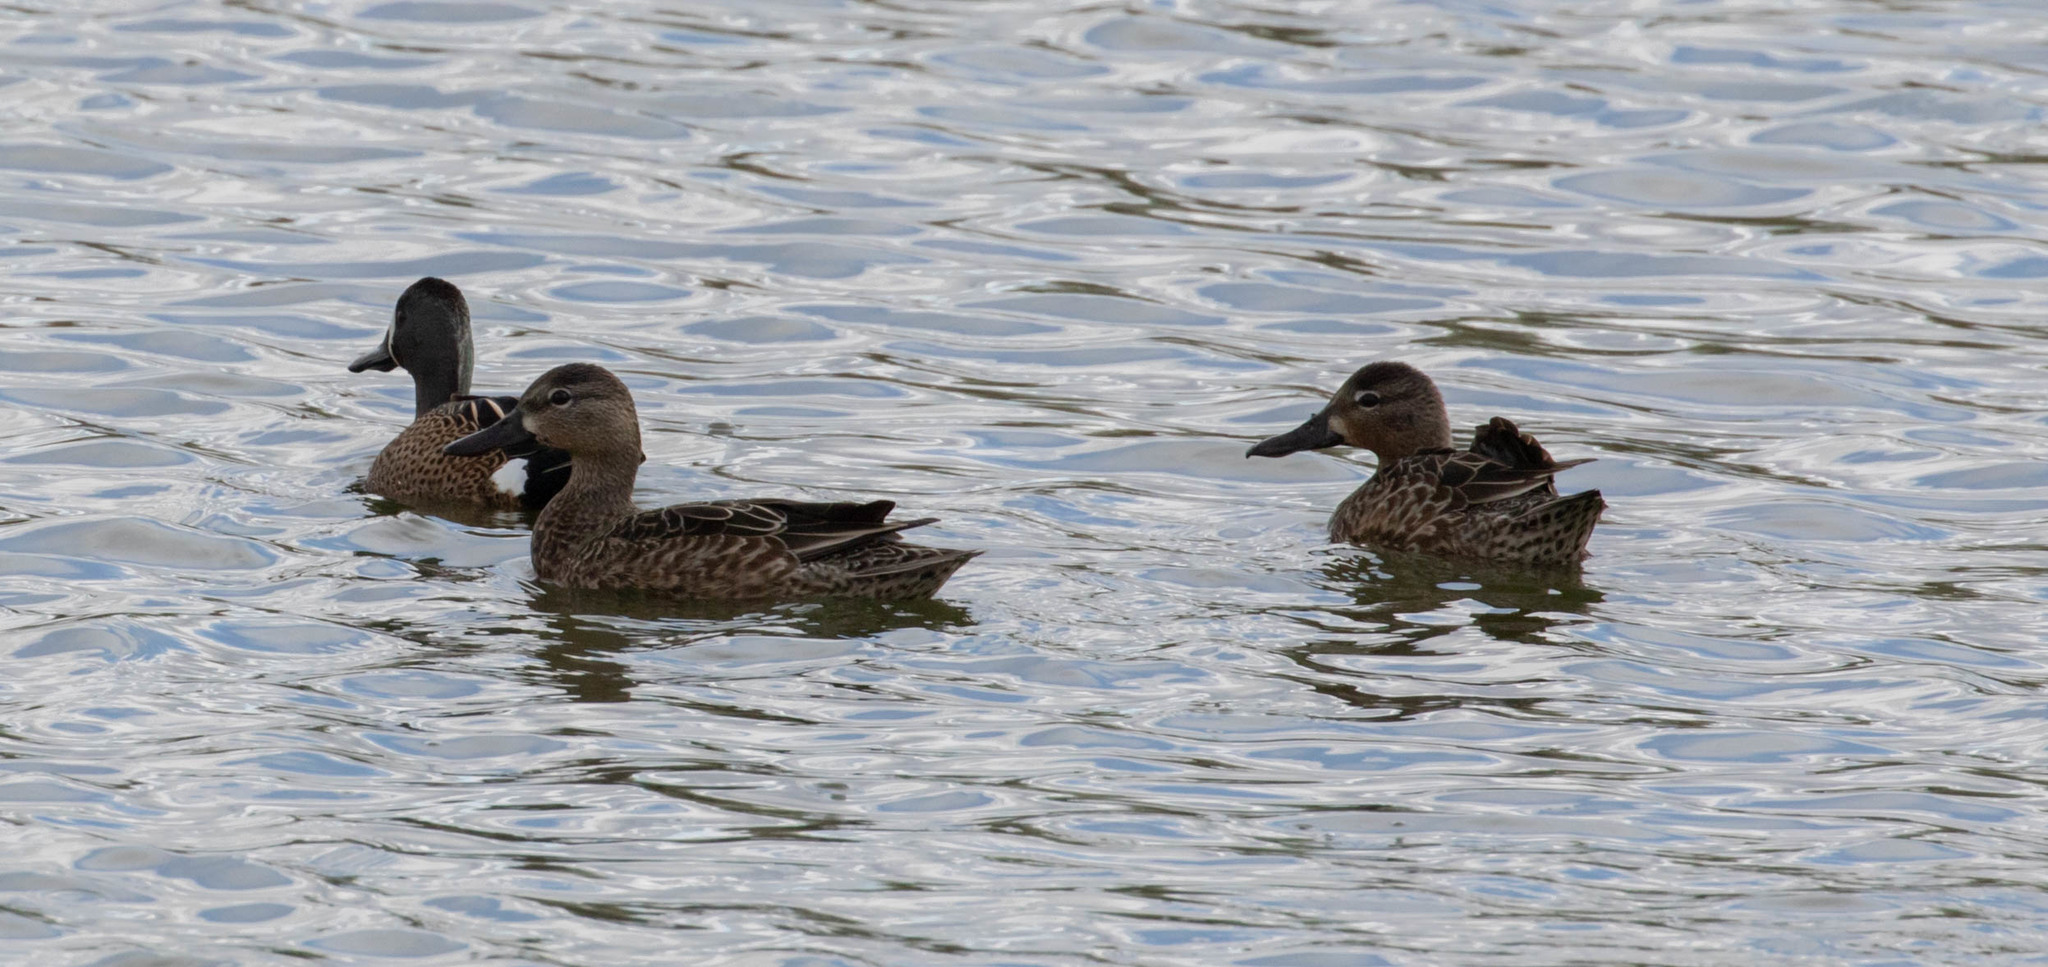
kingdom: Animalia
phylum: Chordata
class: Aves
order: Anseriformes
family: Anatidae
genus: Spatula
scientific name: Spatula discors
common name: Blue-winged teal
